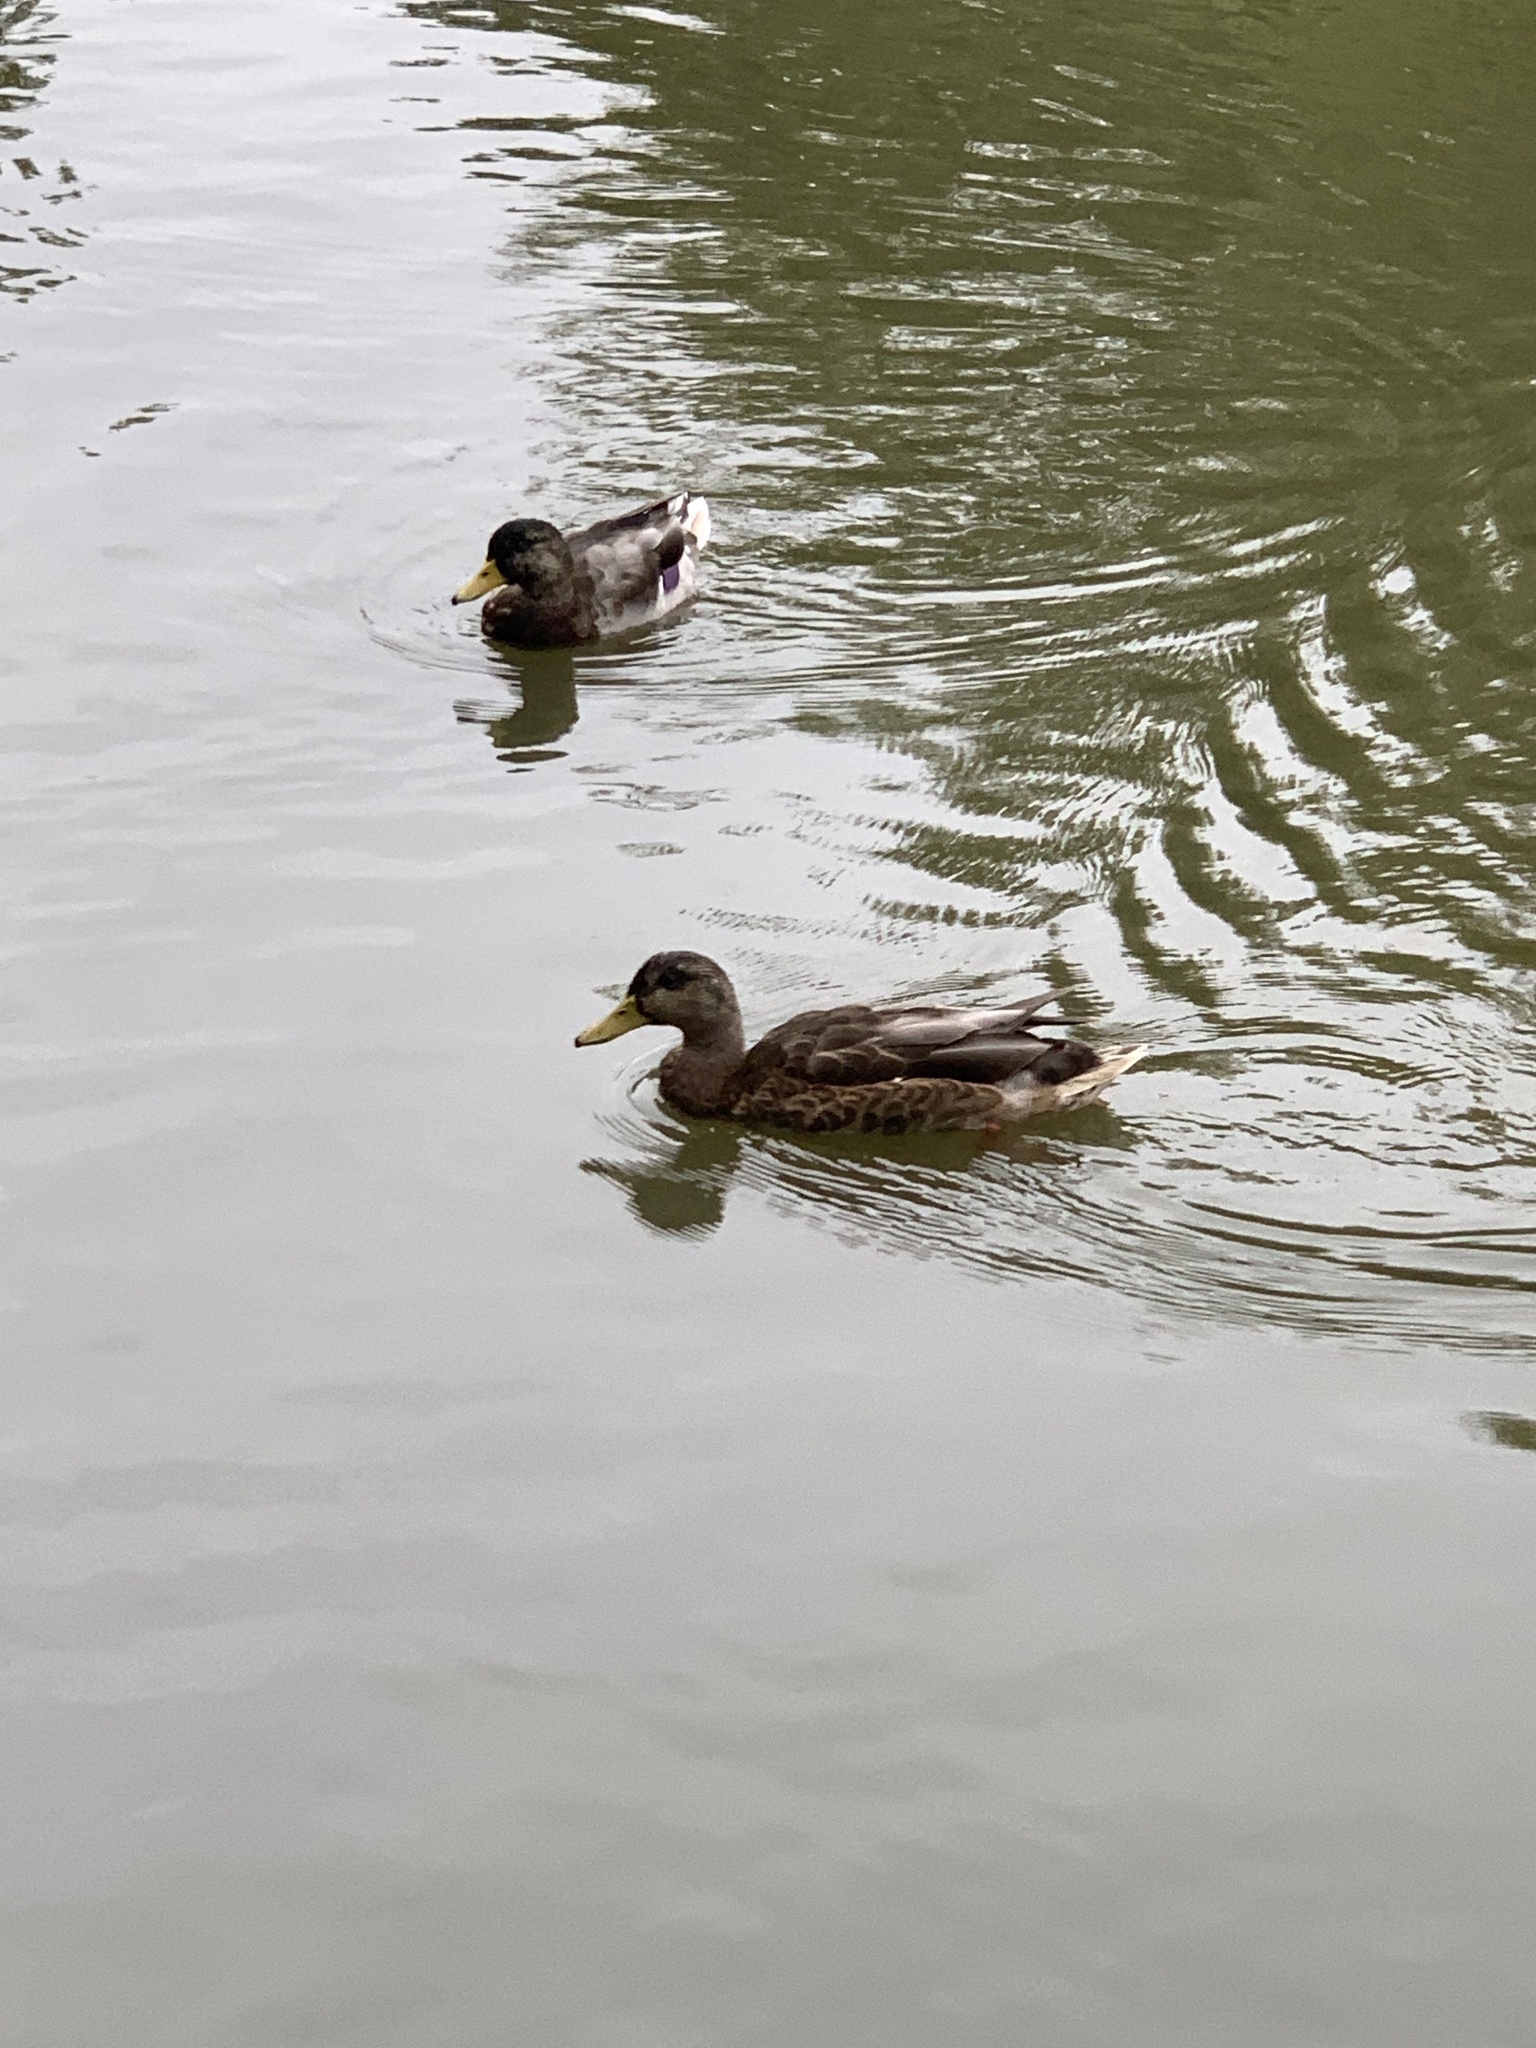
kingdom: Animalia
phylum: Chordata
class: Aves
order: Anseriformes
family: Anatidae
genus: Anas
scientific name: Anas platyrhynchos
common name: Mallard
